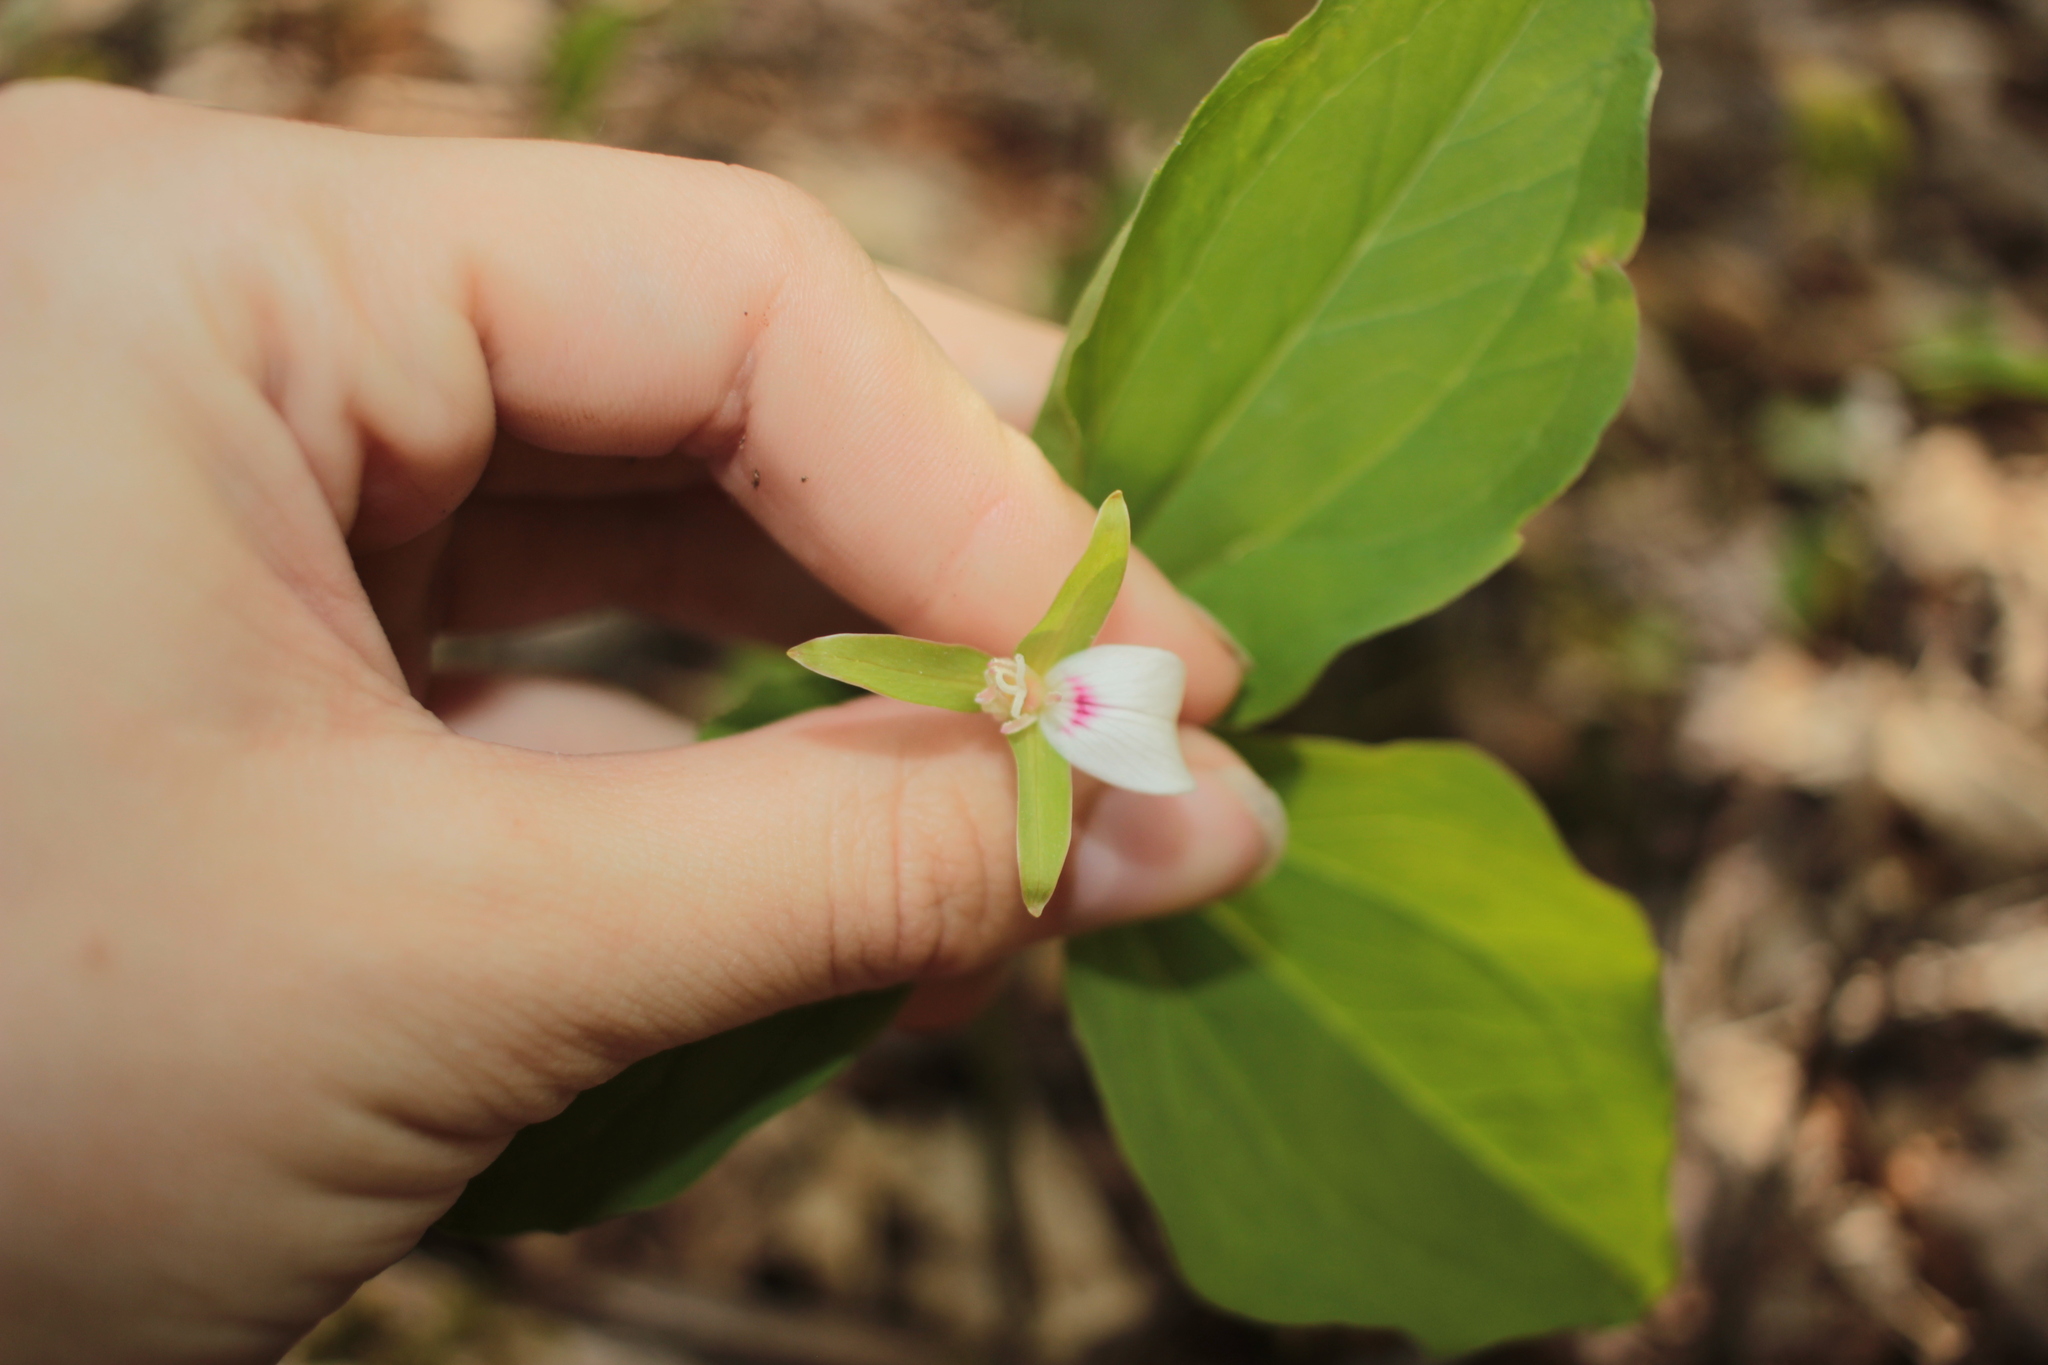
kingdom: Plantae
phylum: Tracheophyta
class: Liliopsida
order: Liliales
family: Melanthiaceae
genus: Trillium
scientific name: Trillium undulatum
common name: Paint trillium
